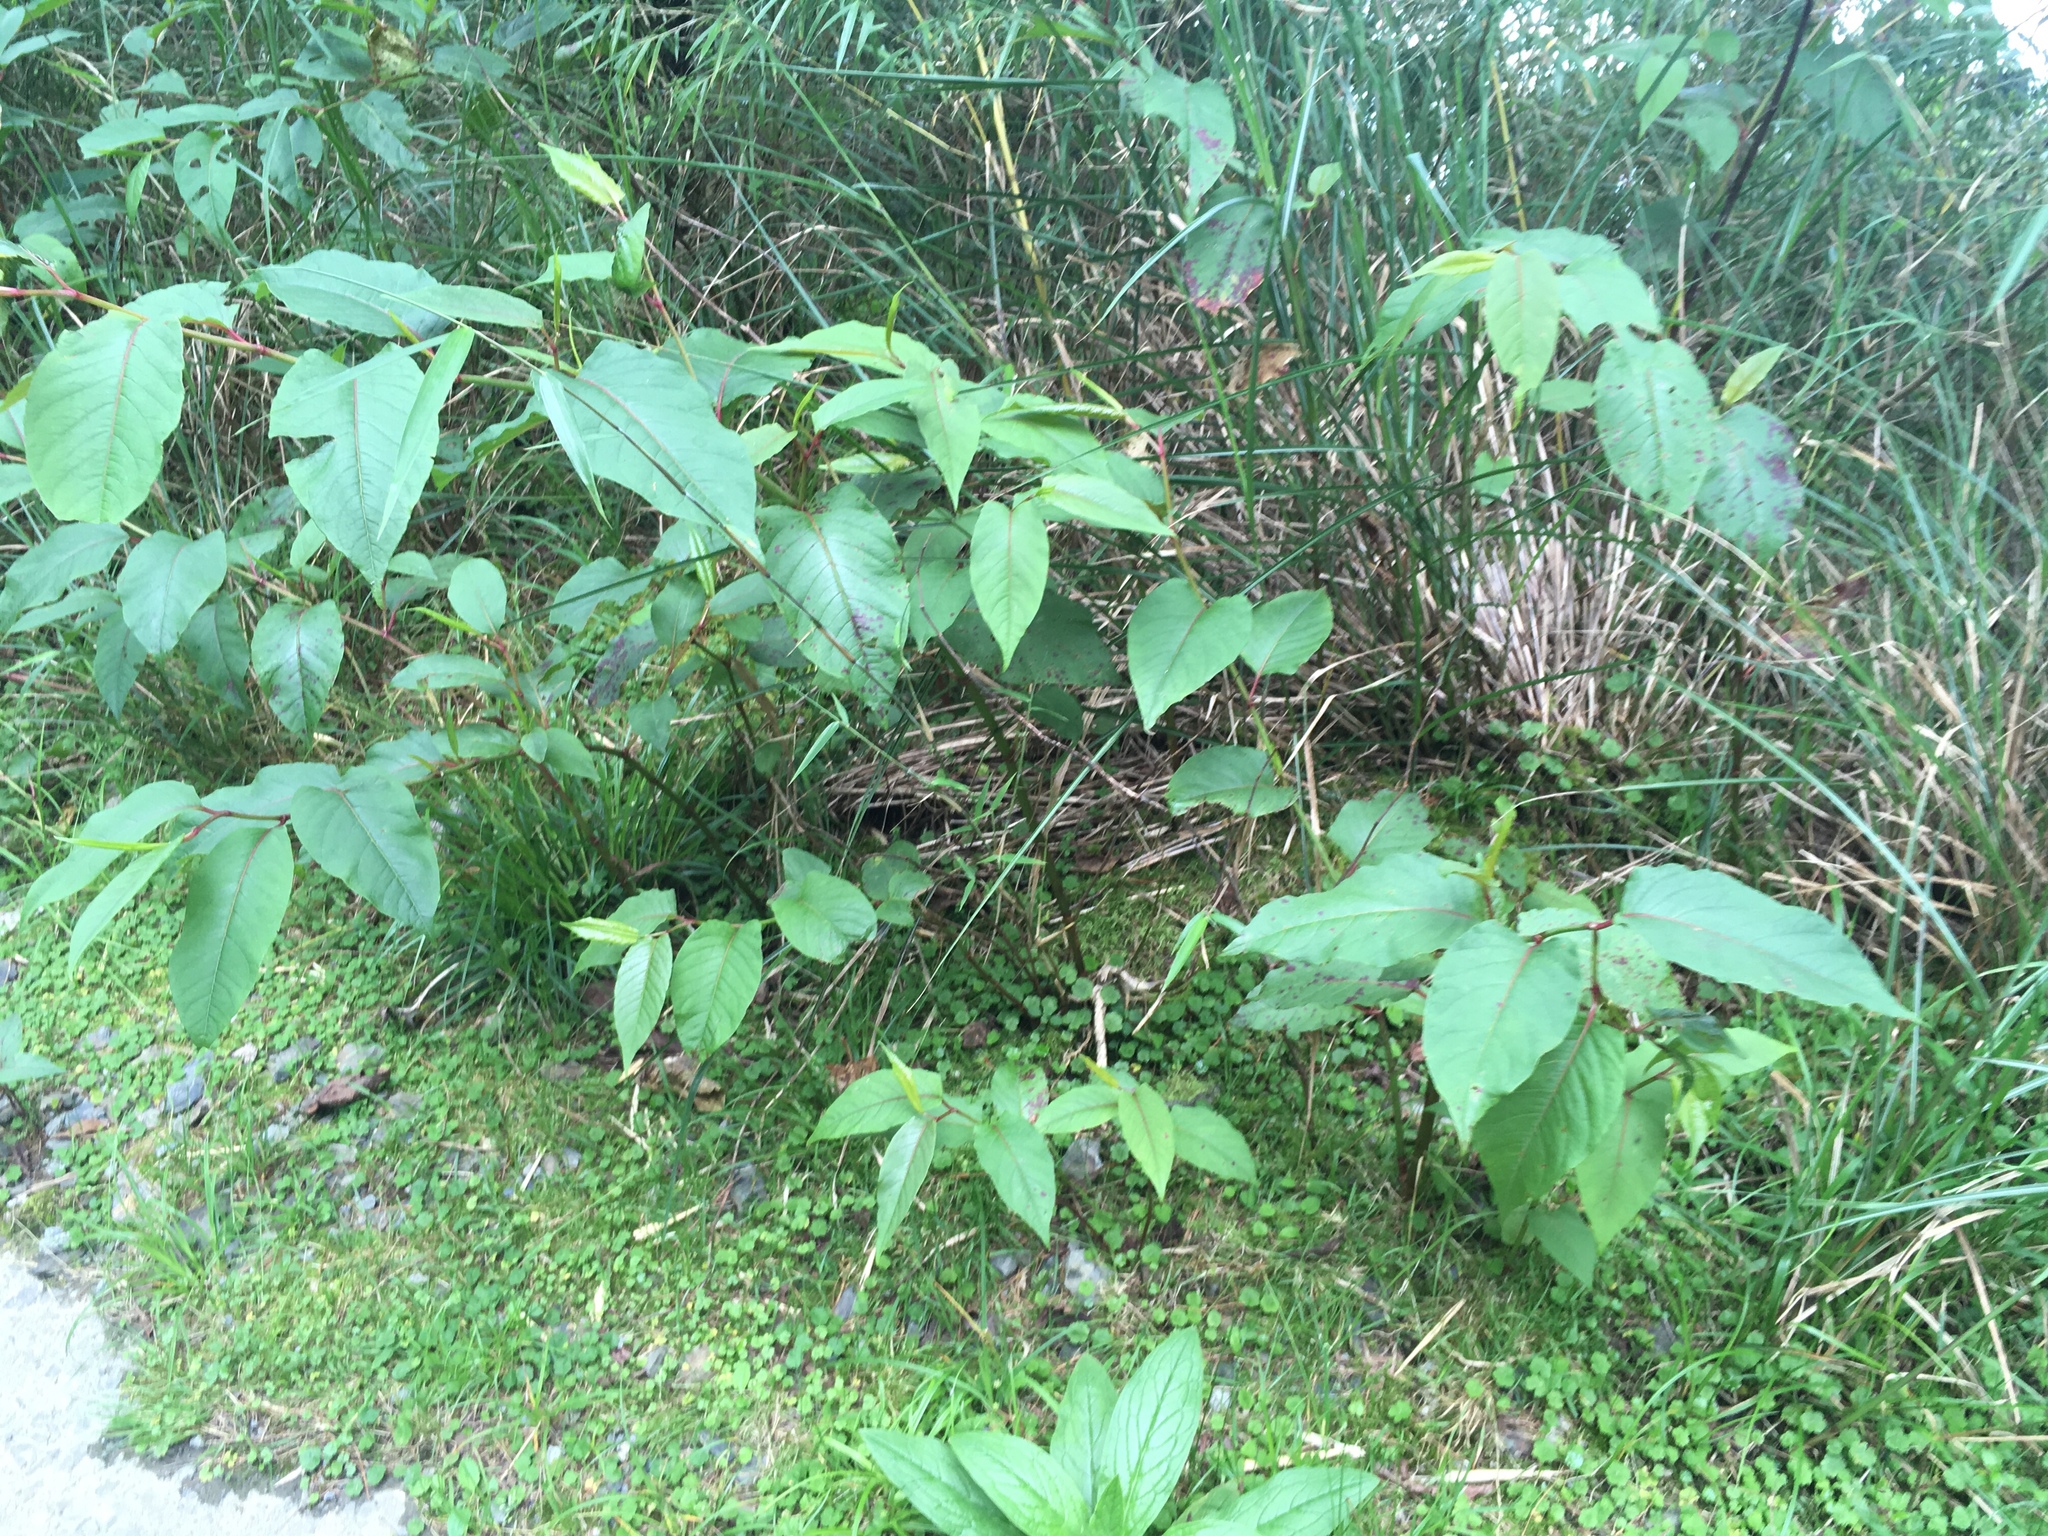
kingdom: Plantae
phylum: Tracheophyta
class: Magnoliopsida
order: Caryophyllales
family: Polygonaceae
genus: Reynoutria
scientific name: Reynoutria japonica
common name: Japanese knotweed
